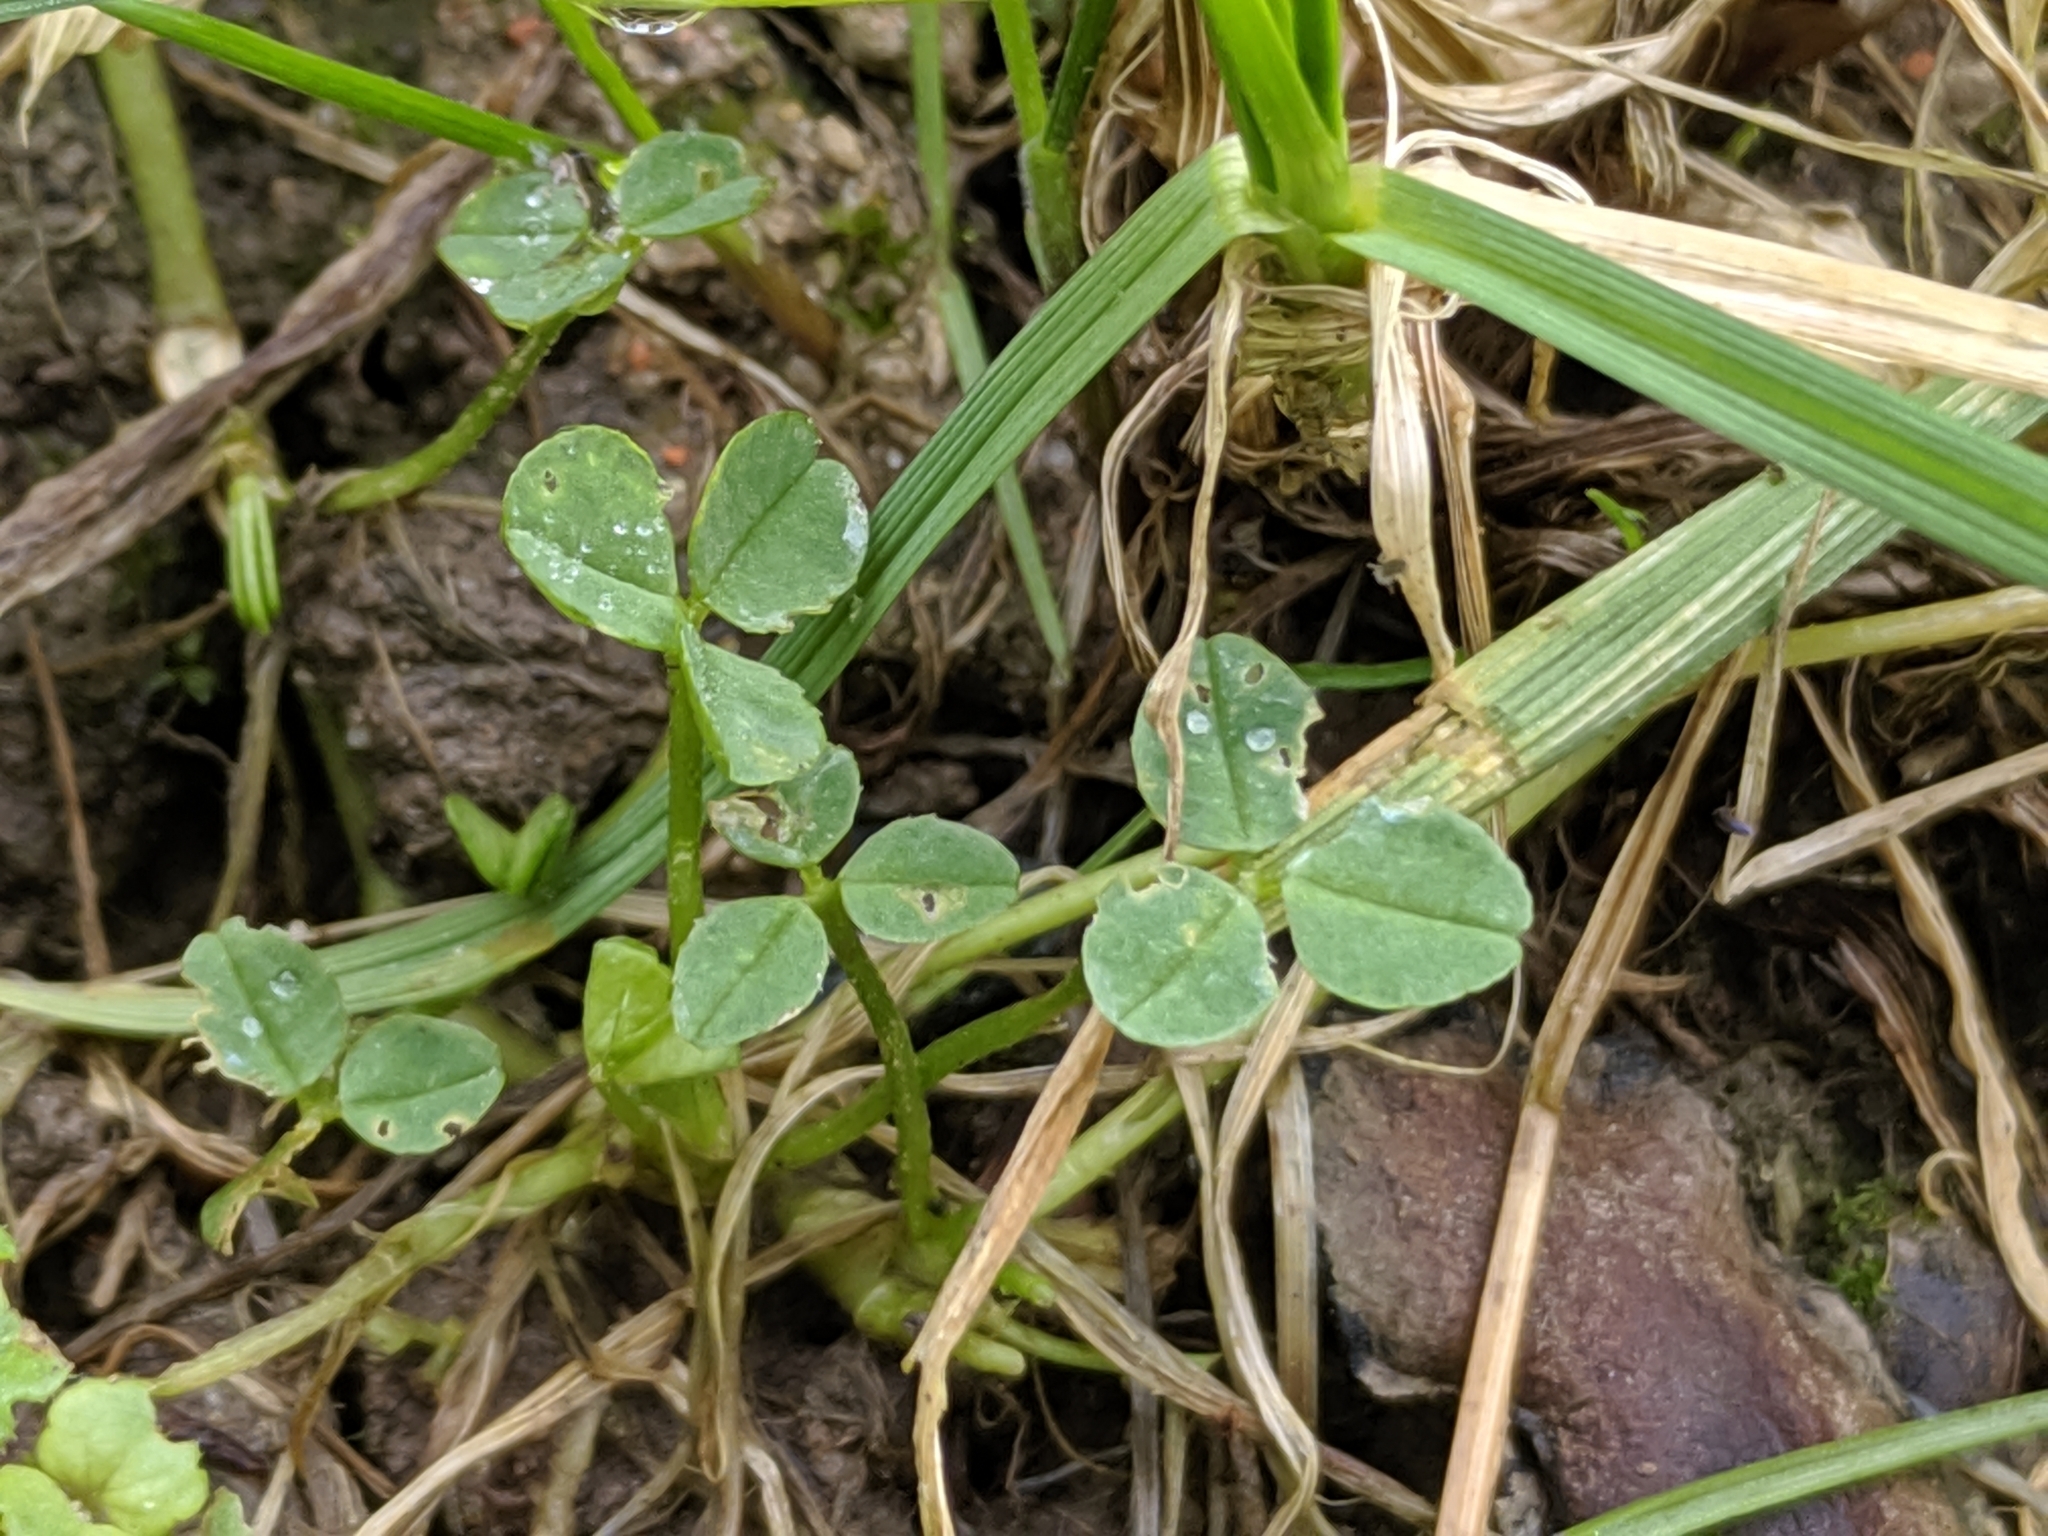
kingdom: Plantae
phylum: Tracheophyta
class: Magnoliopsida
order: Fabales
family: Fabaceae
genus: Trifolium
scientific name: Trifolium repens
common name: White clover
